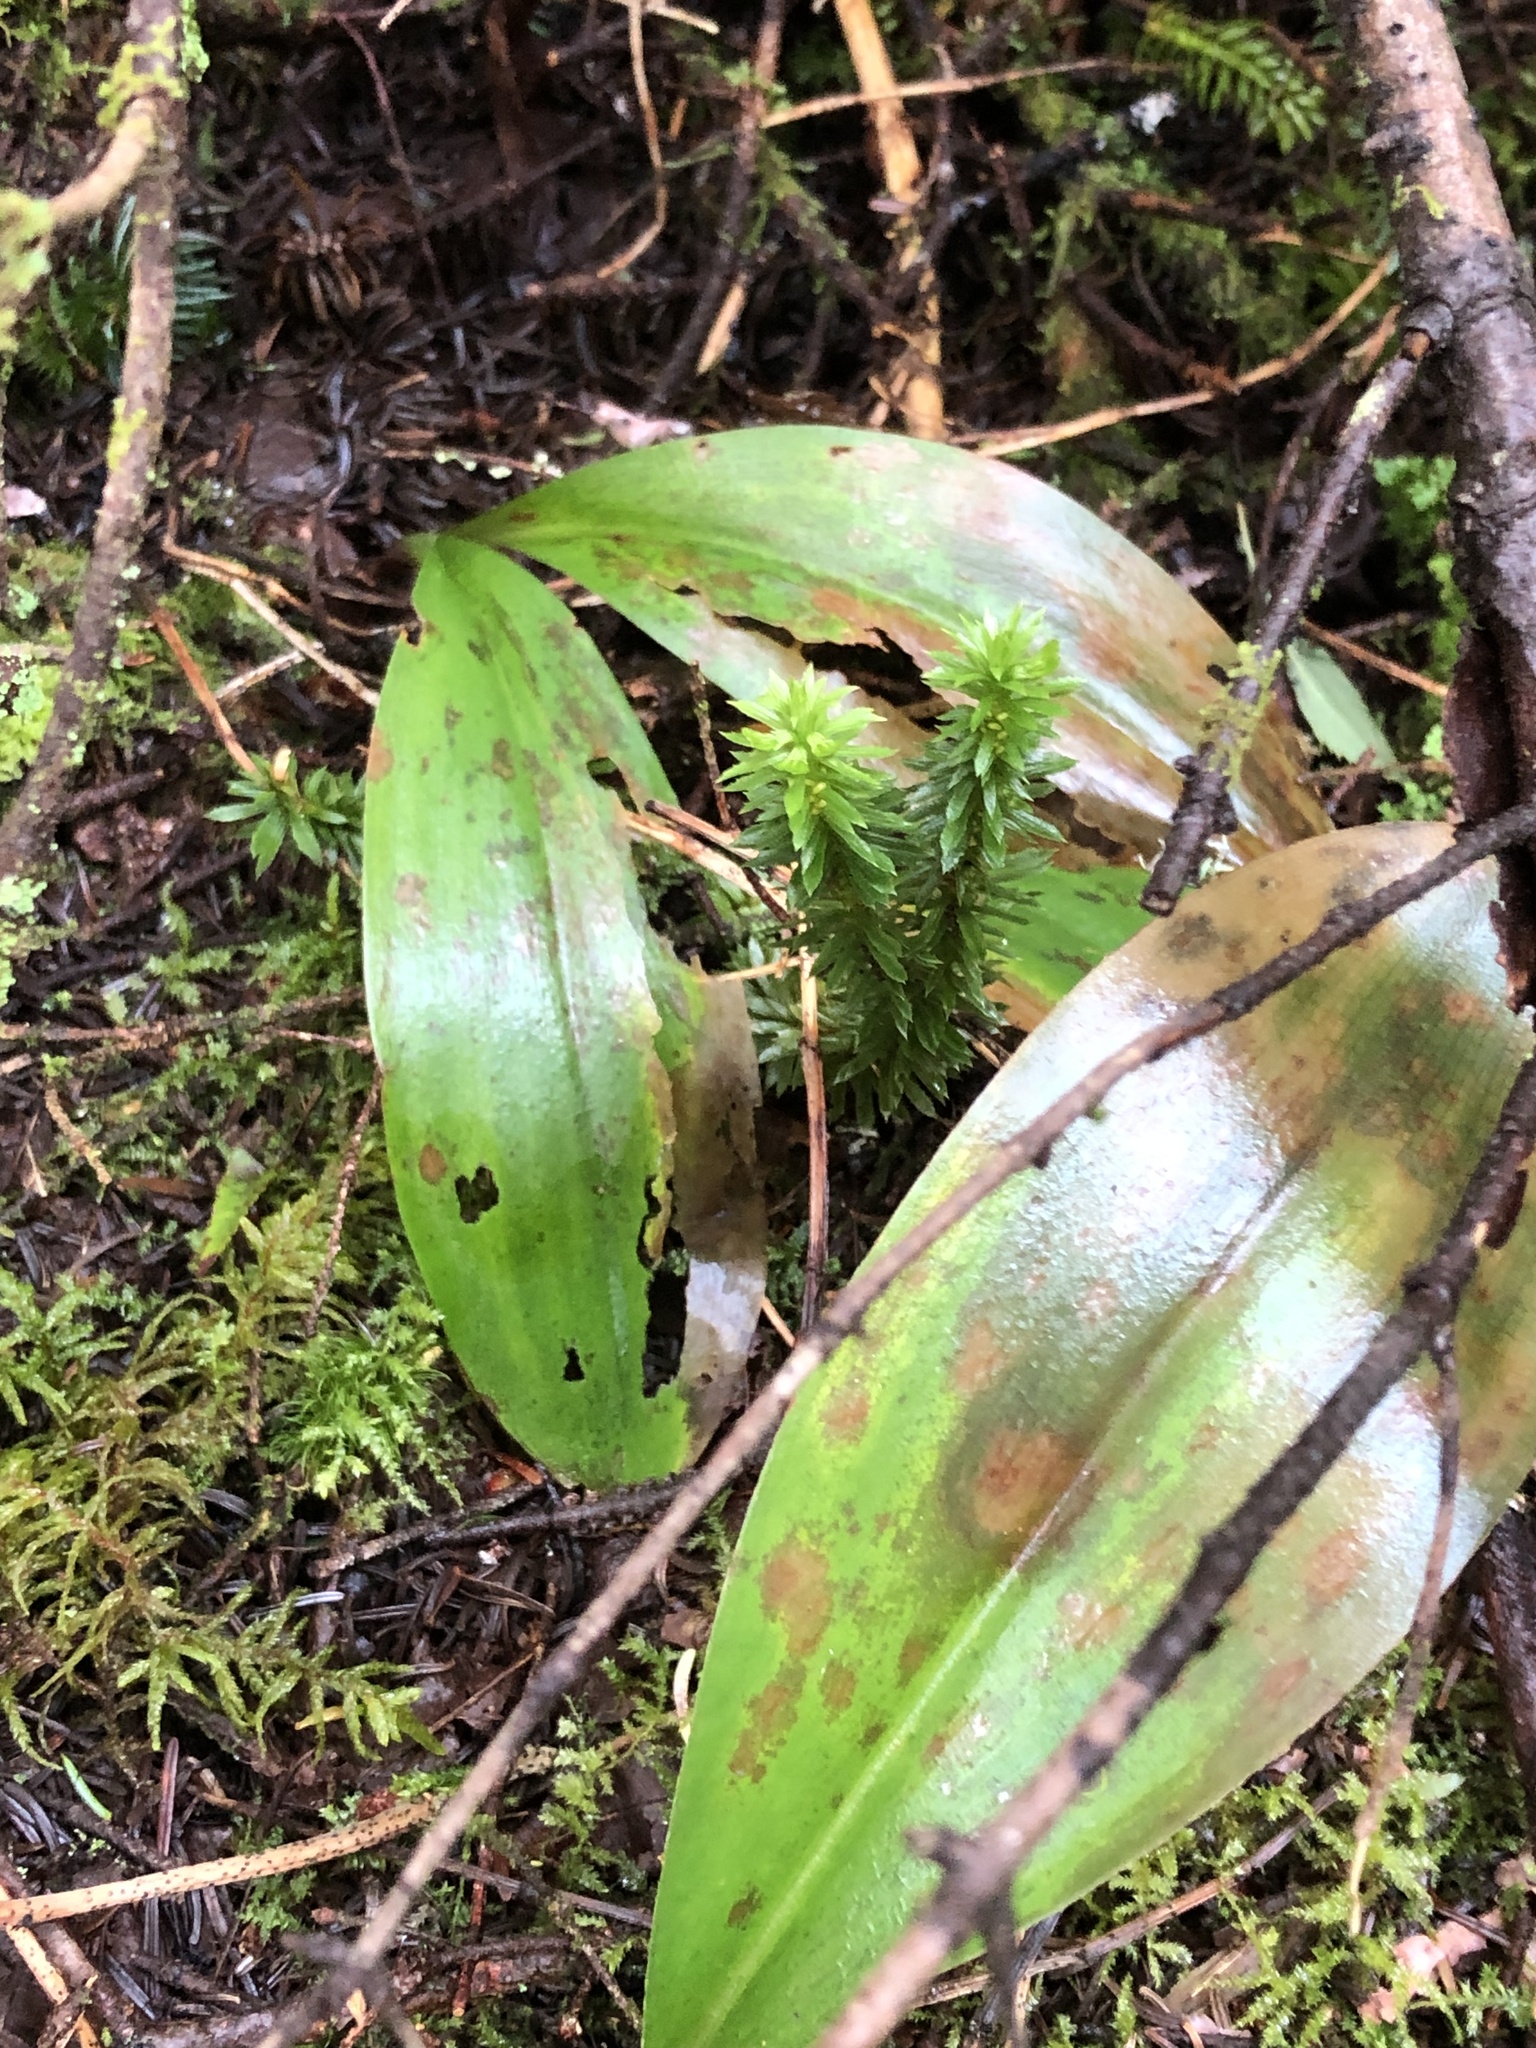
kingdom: Plantae
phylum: Tracheophyta
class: Lycopodiopsida
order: Lycopodiales
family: Lycopodiaceae
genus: Huperzia
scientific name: Huperzia lucidula
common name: Shining clubmoss
